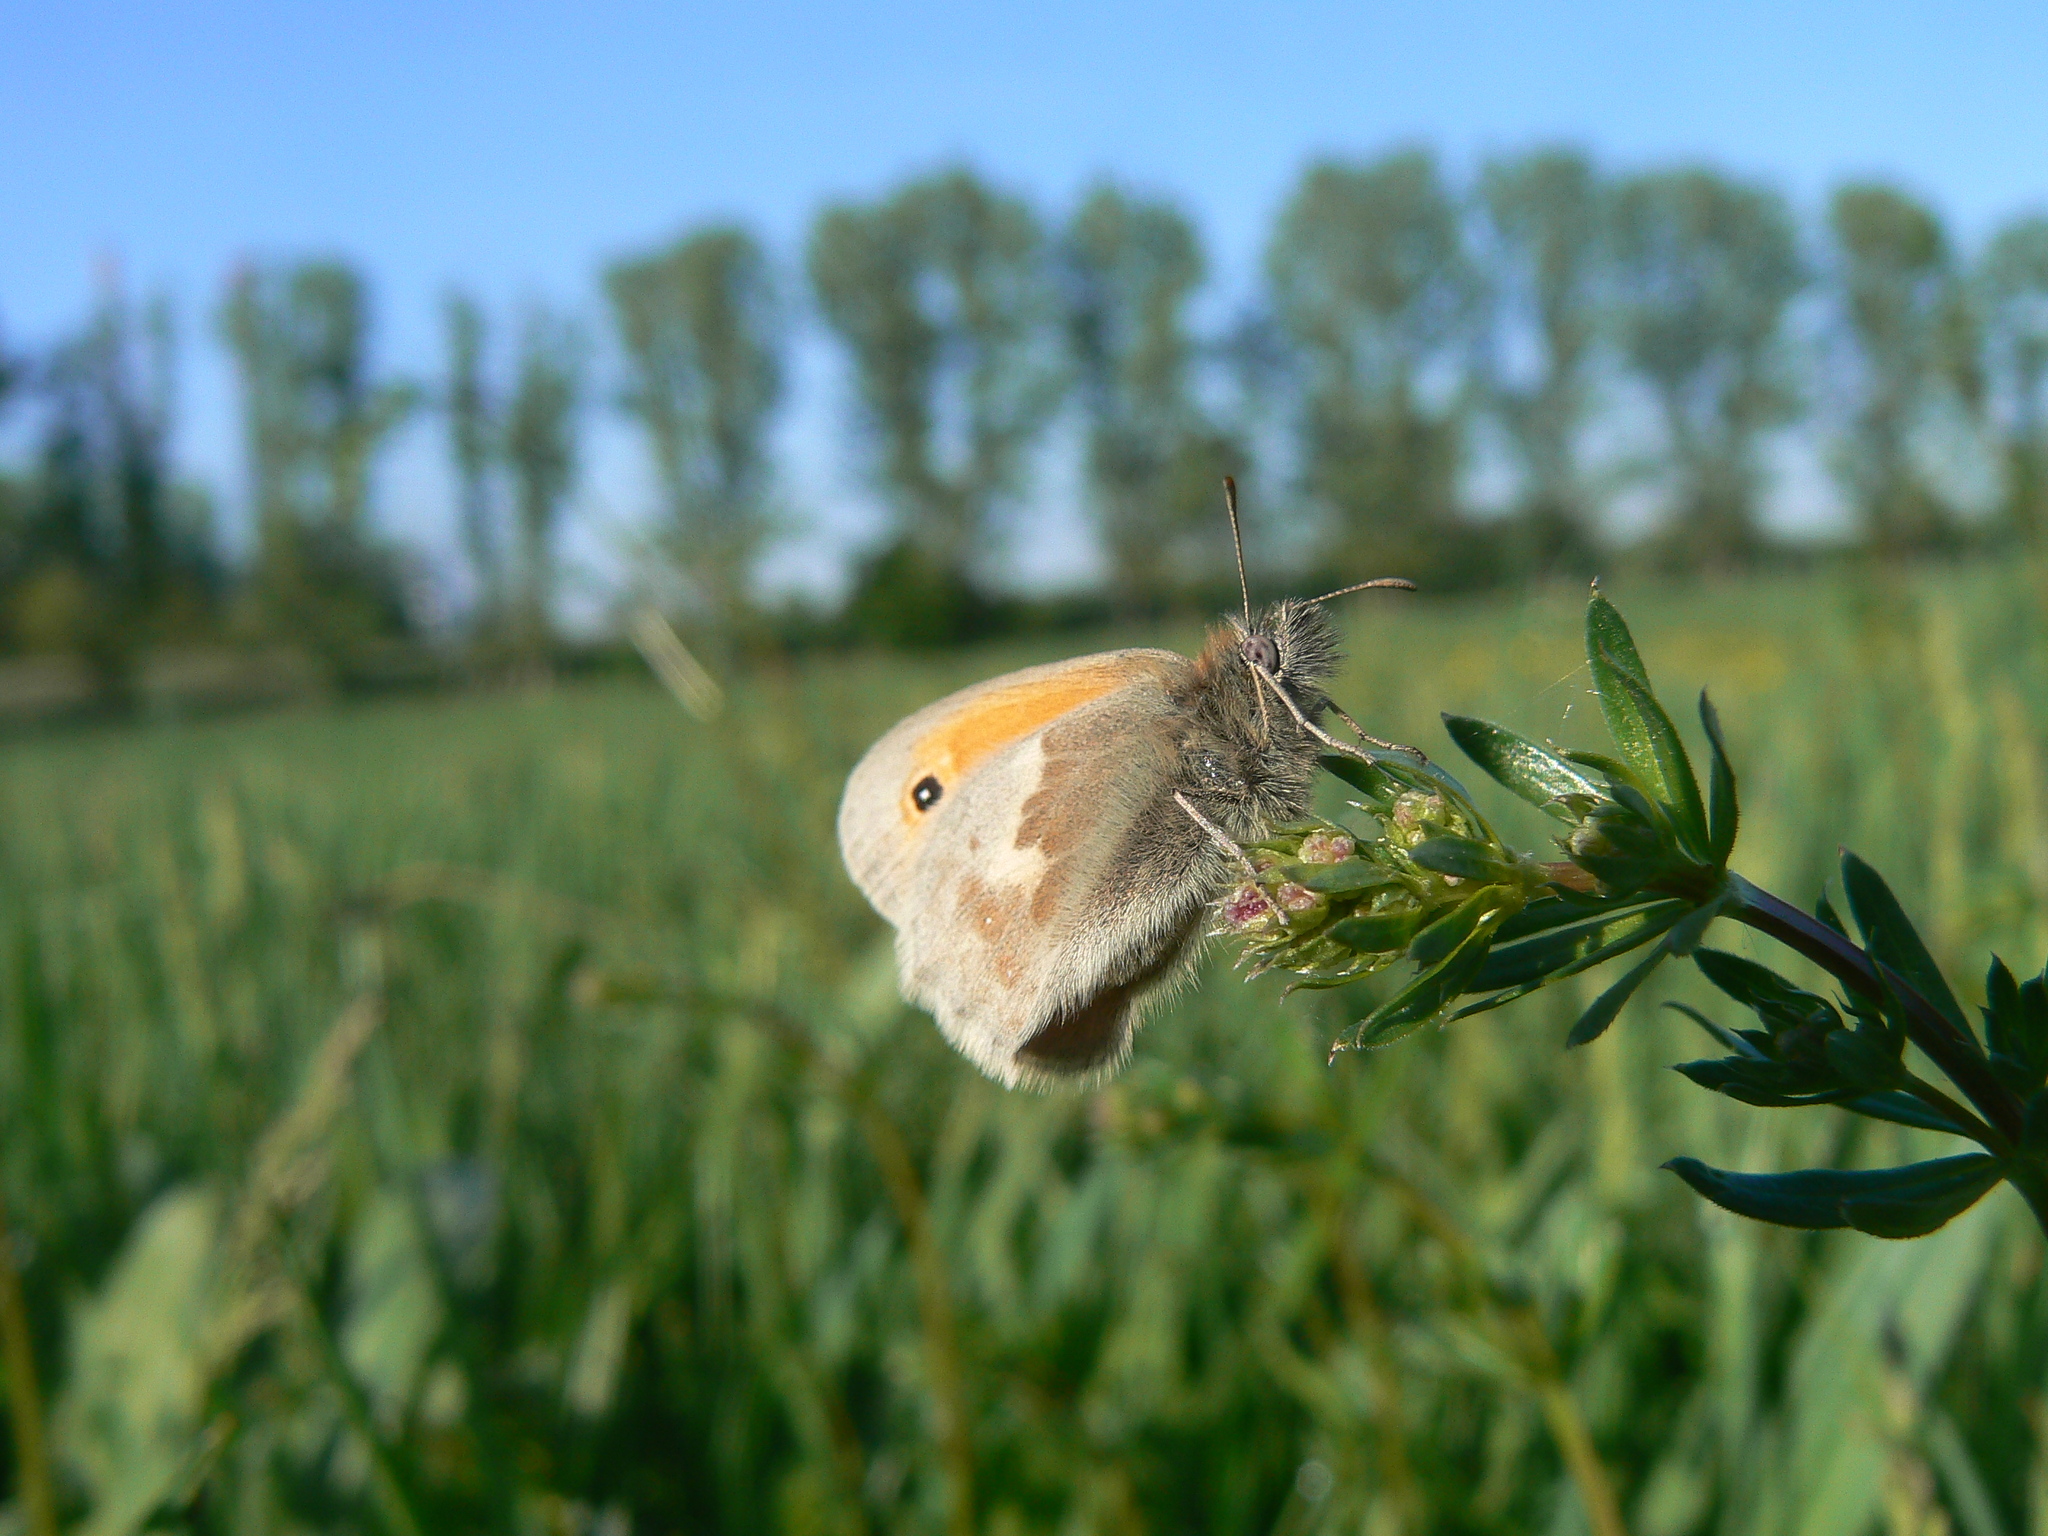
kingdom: Animalia
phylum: Arthropoda
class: Insecta
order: Lepidoptera
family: Nymphalidae
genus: Coenonympha
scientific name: Coenonympha pamphilus
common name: Small heath
